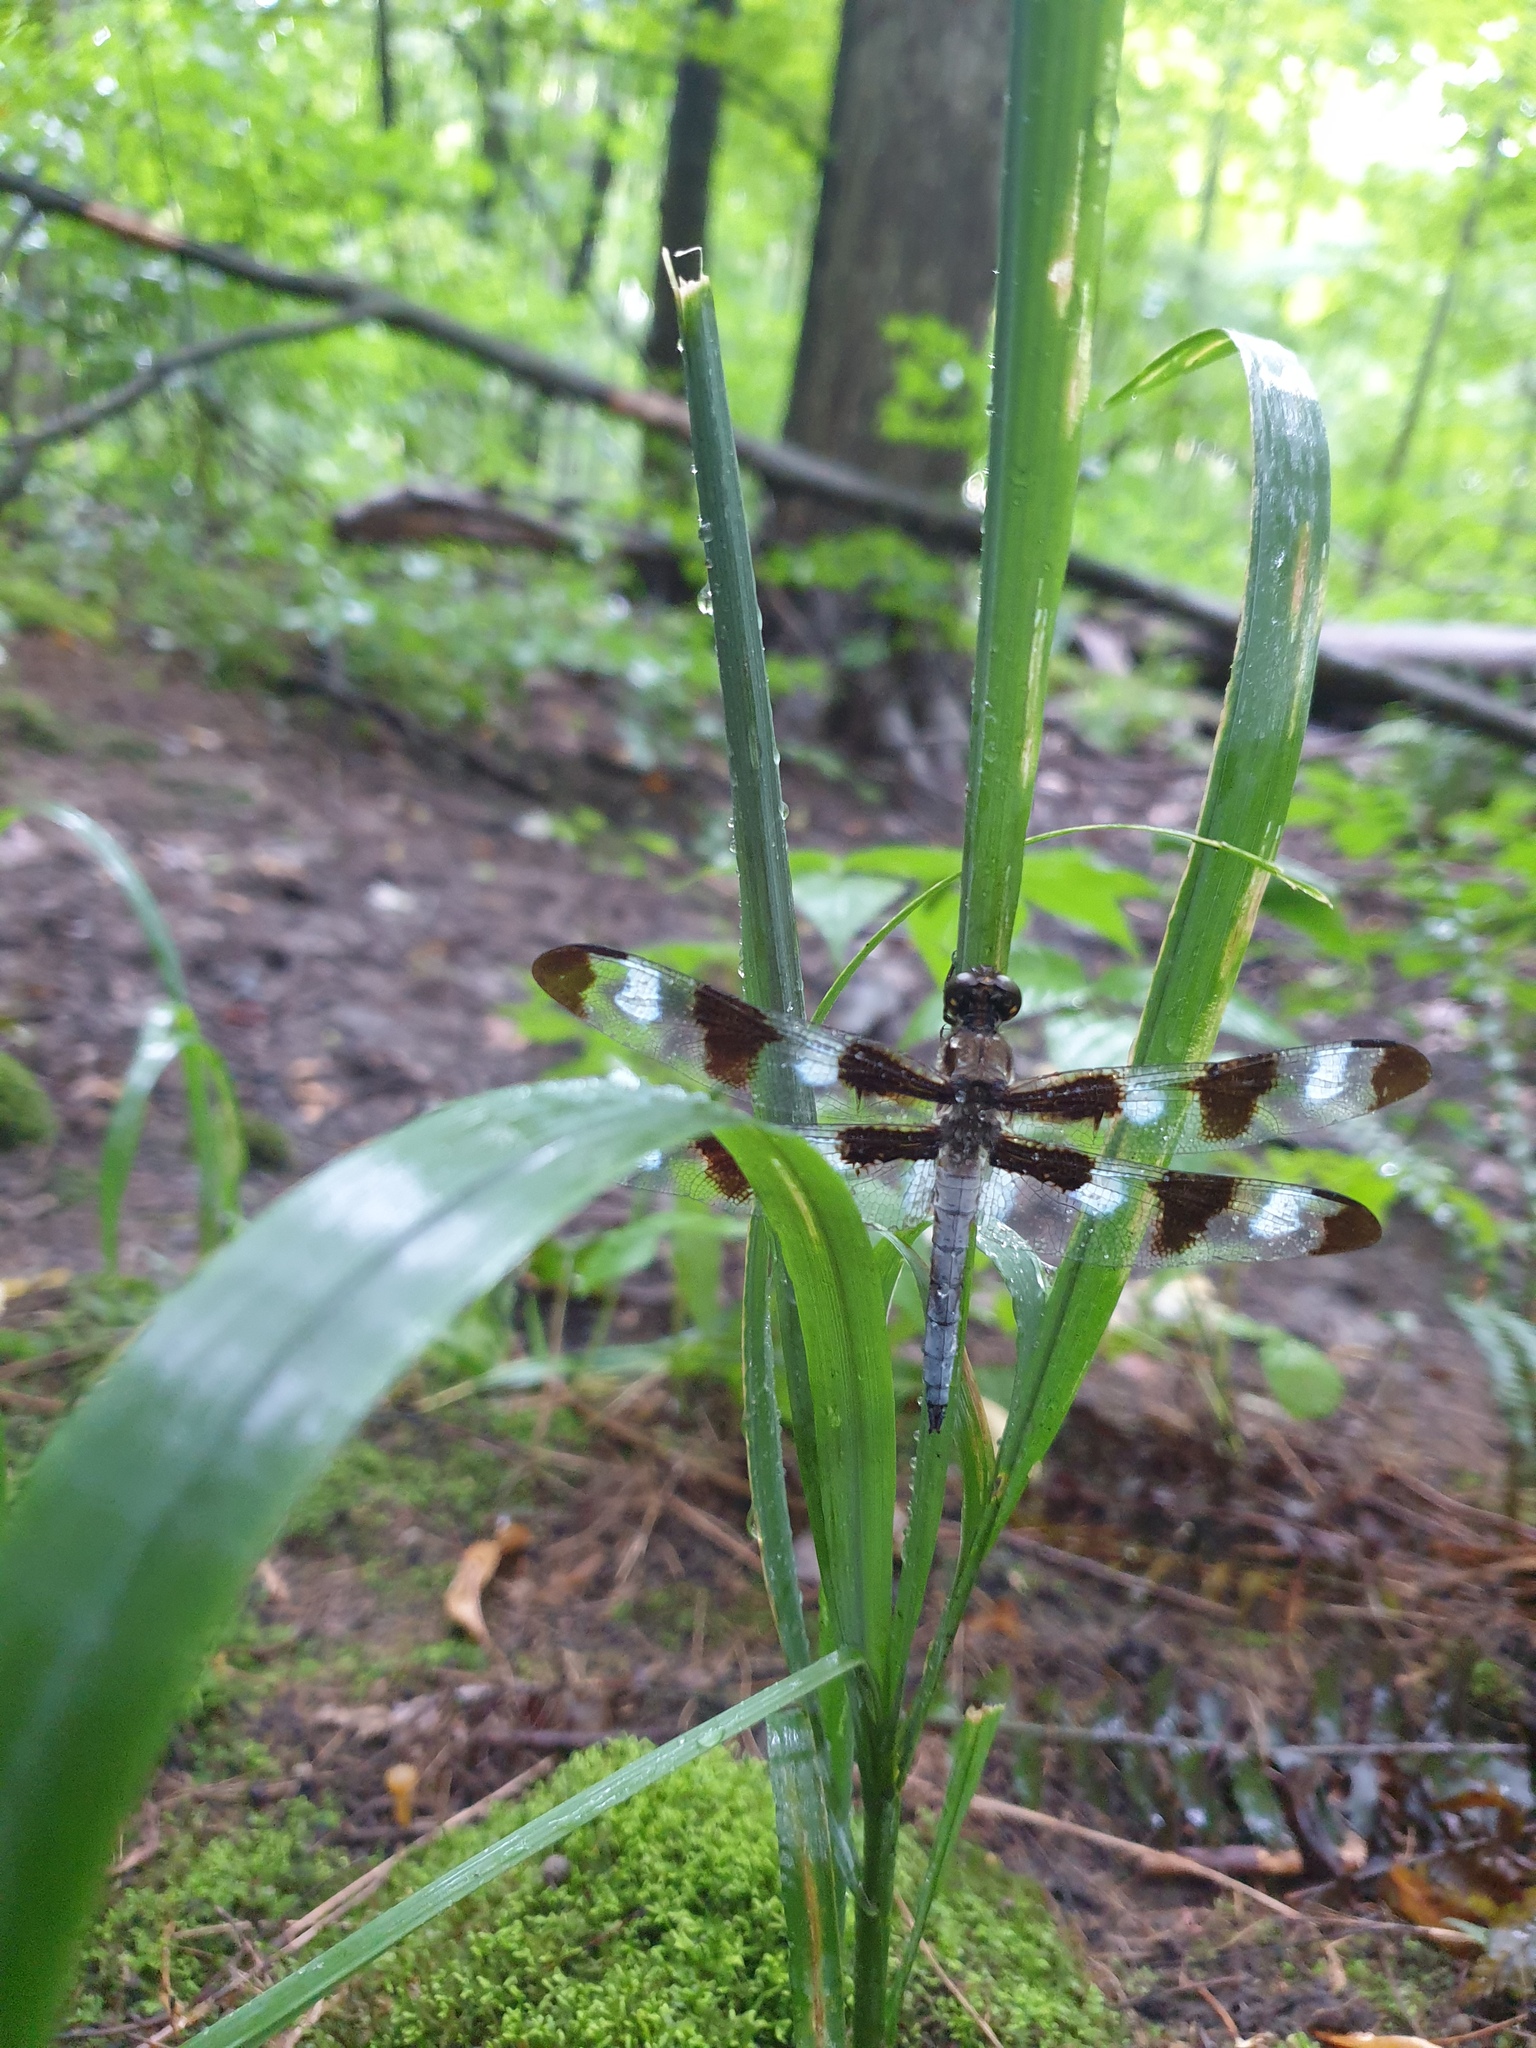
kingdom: Animalia
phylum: Arthropoda
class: Insecta
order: Odonata
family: Libellulidae
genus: Libellula
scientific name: Libellula pulchella
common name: Twelve-spotted skimmer
